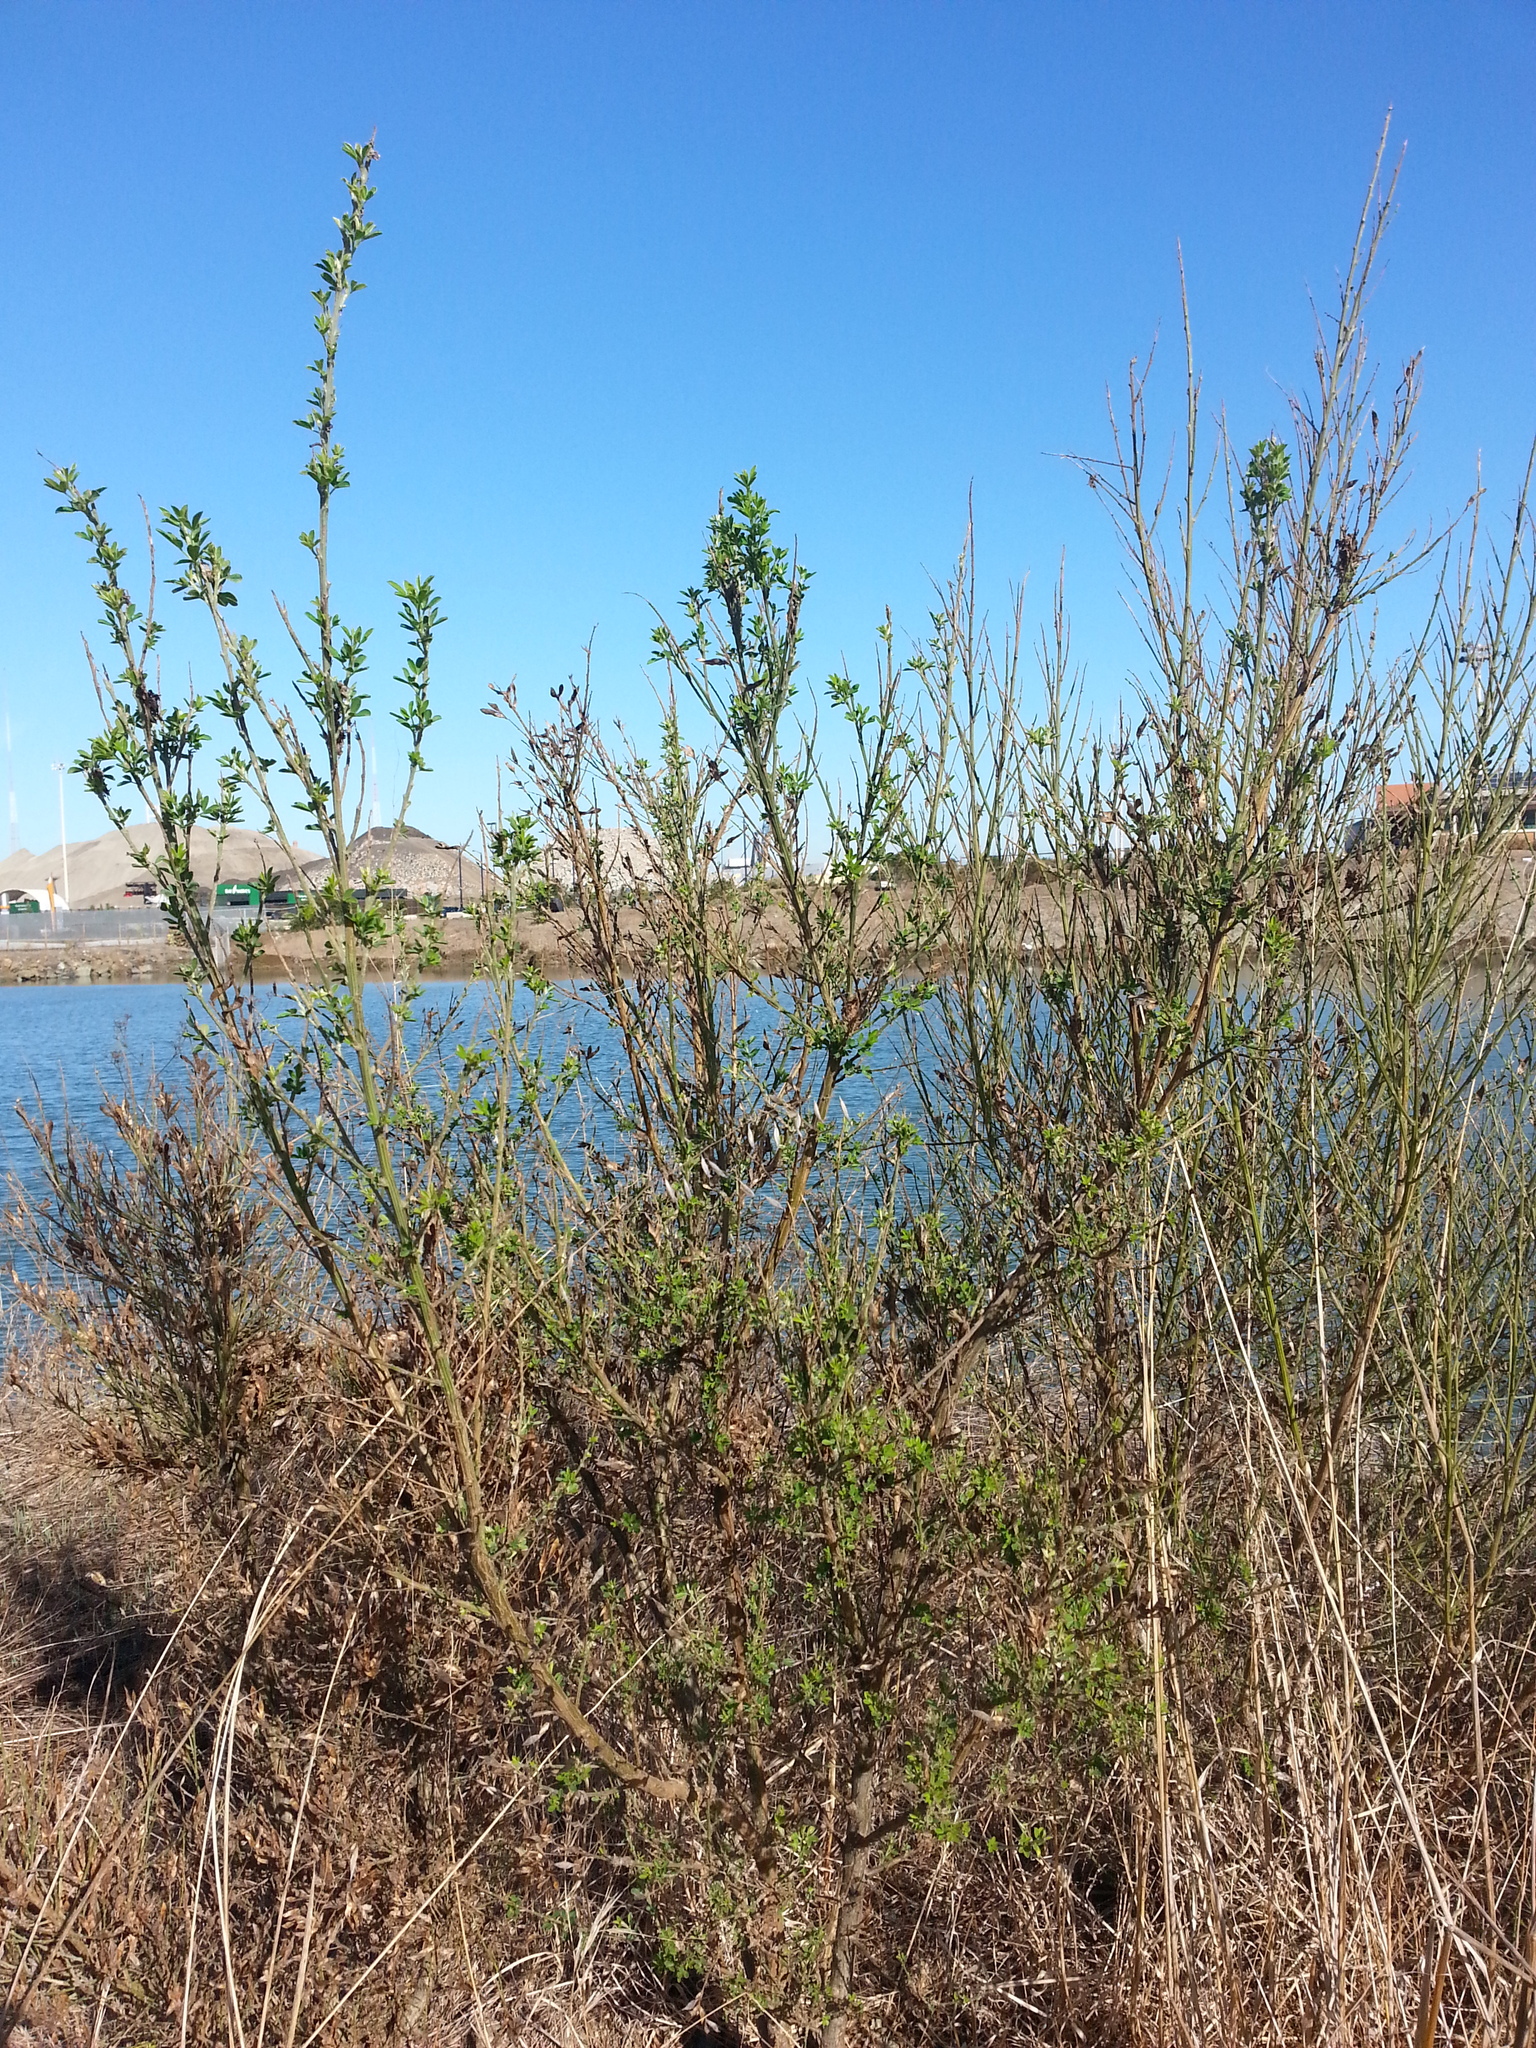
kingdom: Plantae
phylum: Tracheophyta
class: Magnoliopsida
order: Fabales
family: Fabaceae
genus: Genista
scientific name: Genista monspessulana
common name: Montpellier broom
